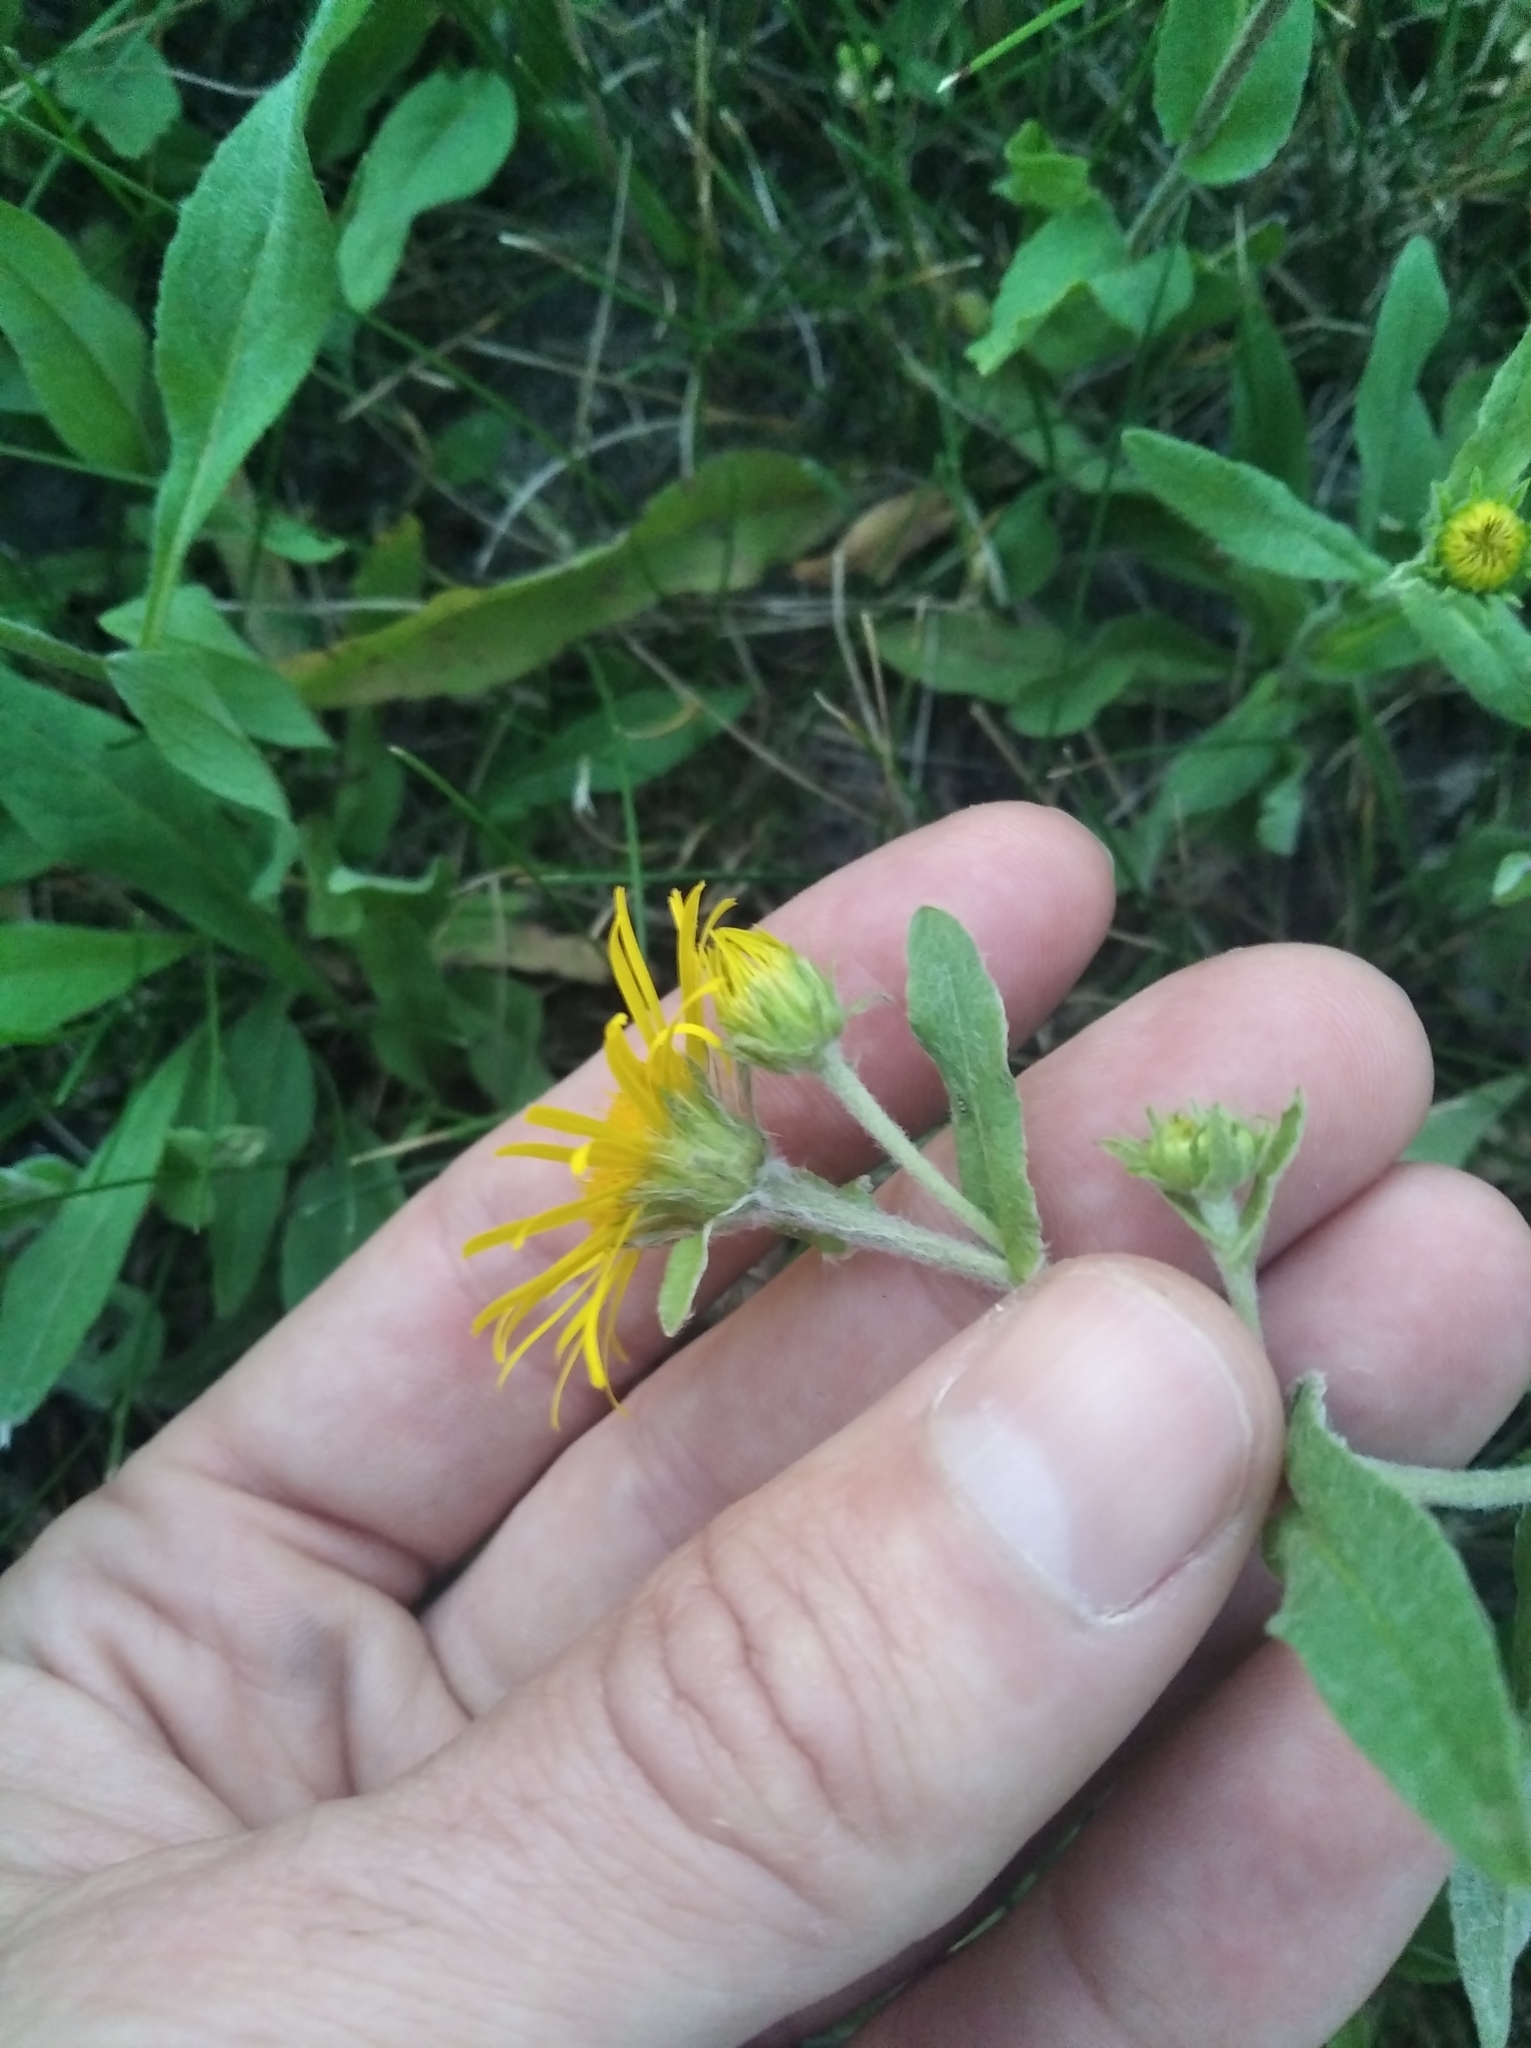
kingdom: Plantae
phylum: Tracheophyta
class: Magnoliopsida
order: Asterales
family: Asteraceae
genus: Pentanema
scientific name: Pentanema britannicum
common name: British elecampane
